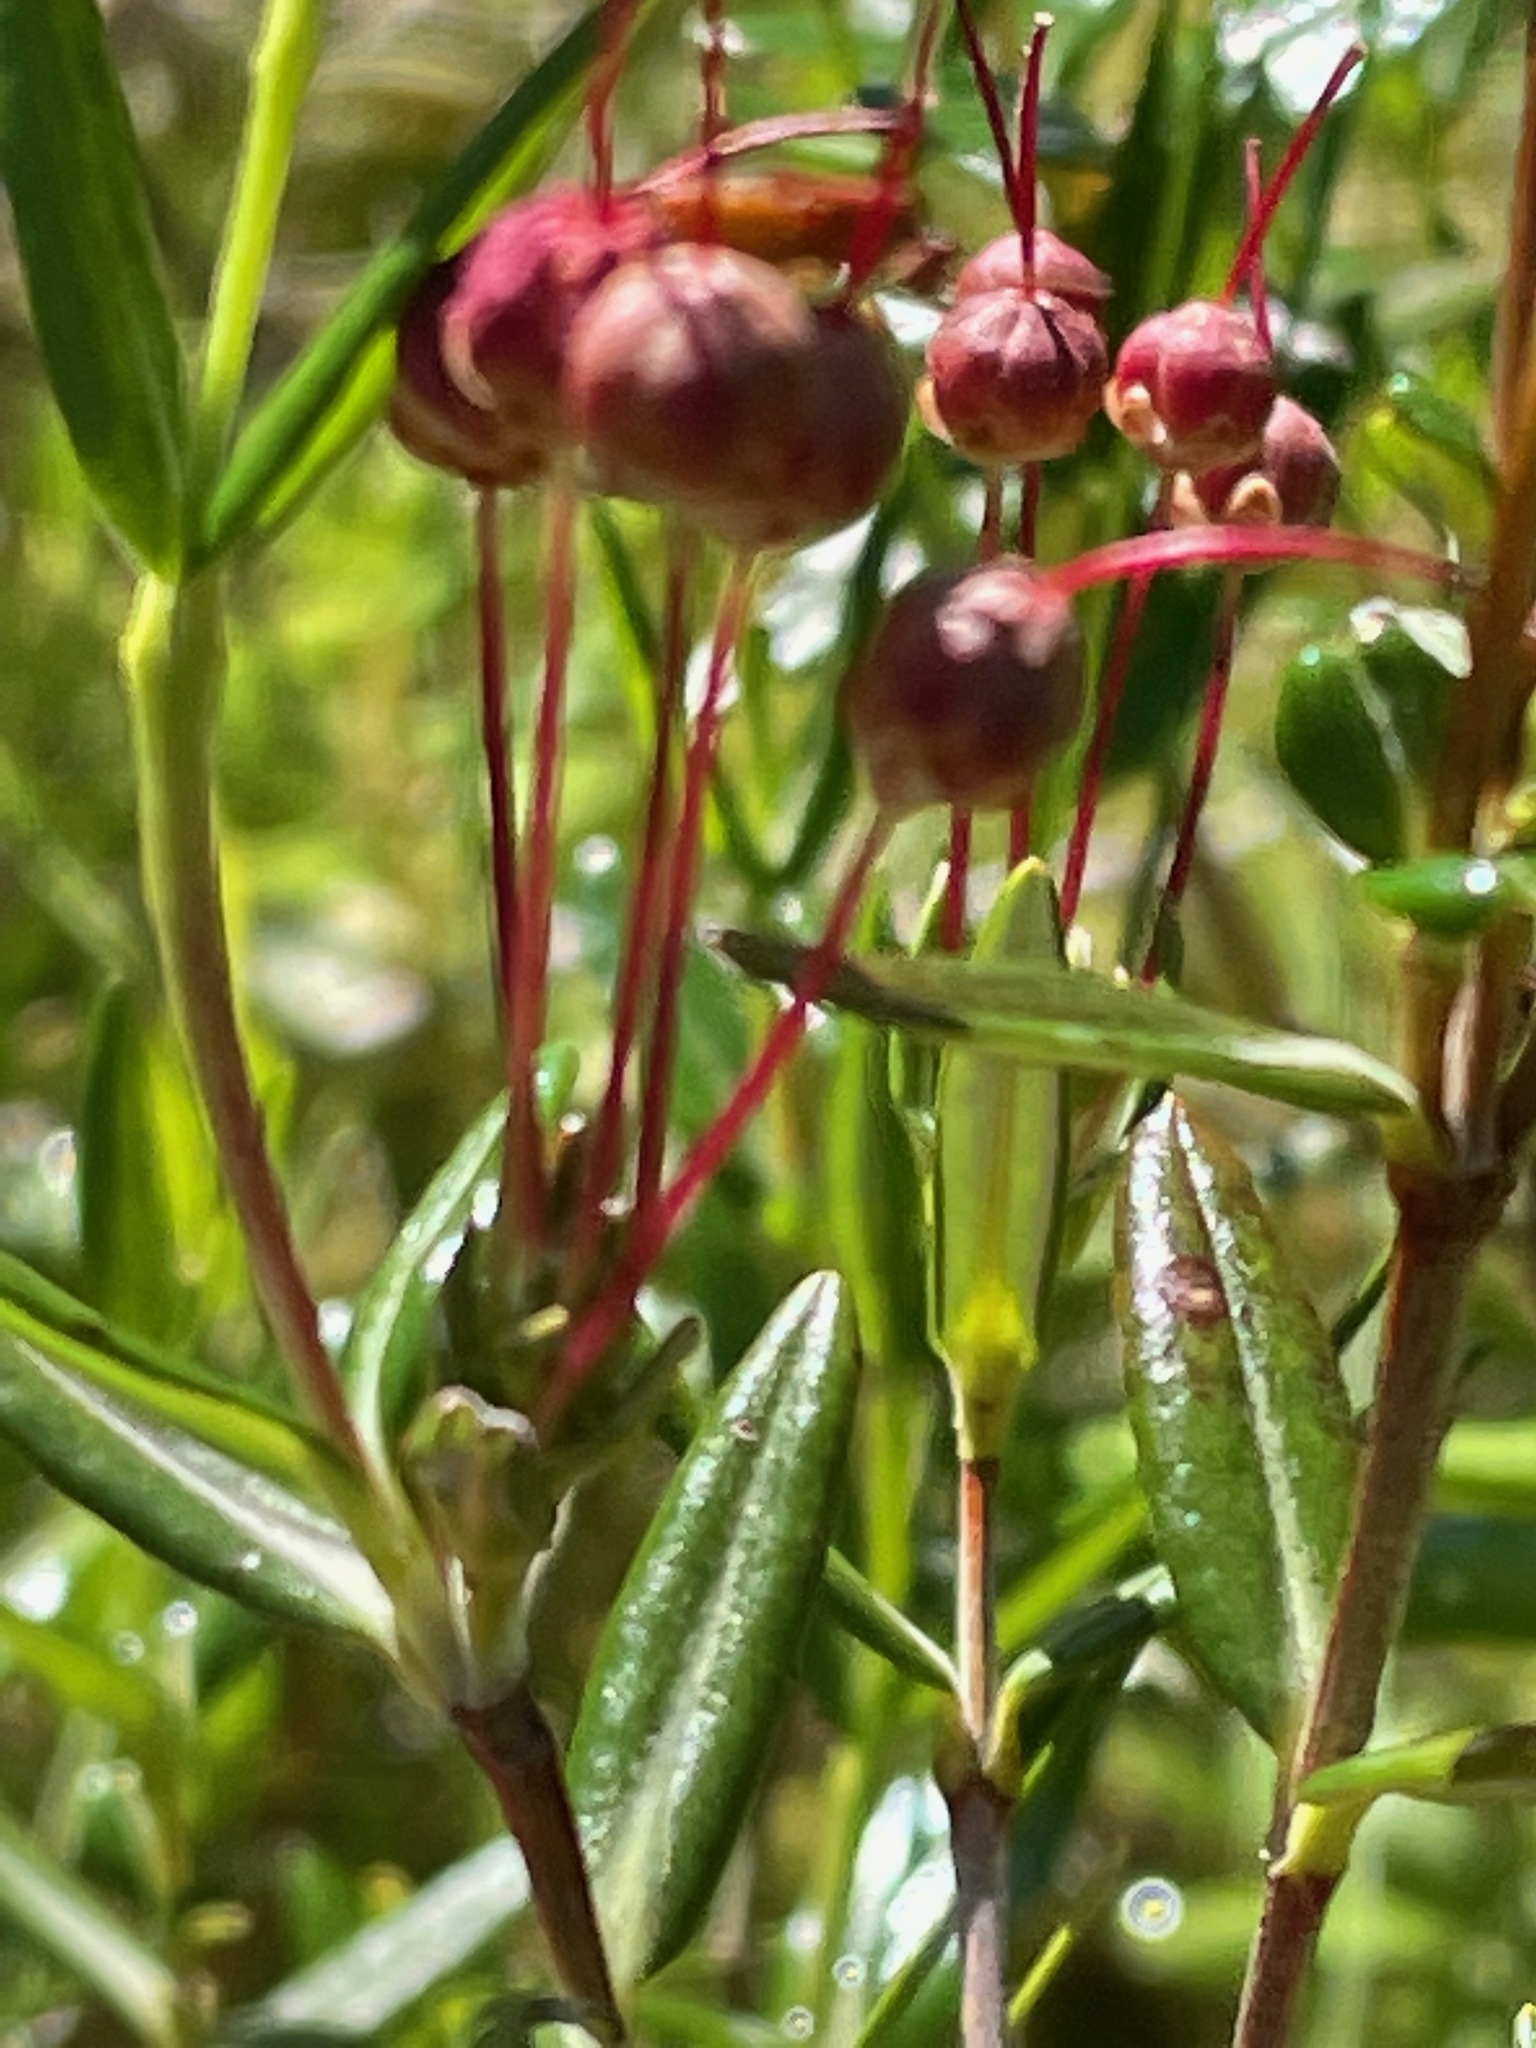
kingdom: Plantae
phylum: Tracheophyta
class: Magnoliopsida
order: Ericales
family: Ericaceae
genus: Kalmia
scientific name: Kalmia polifolia
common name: Bog-laurel
